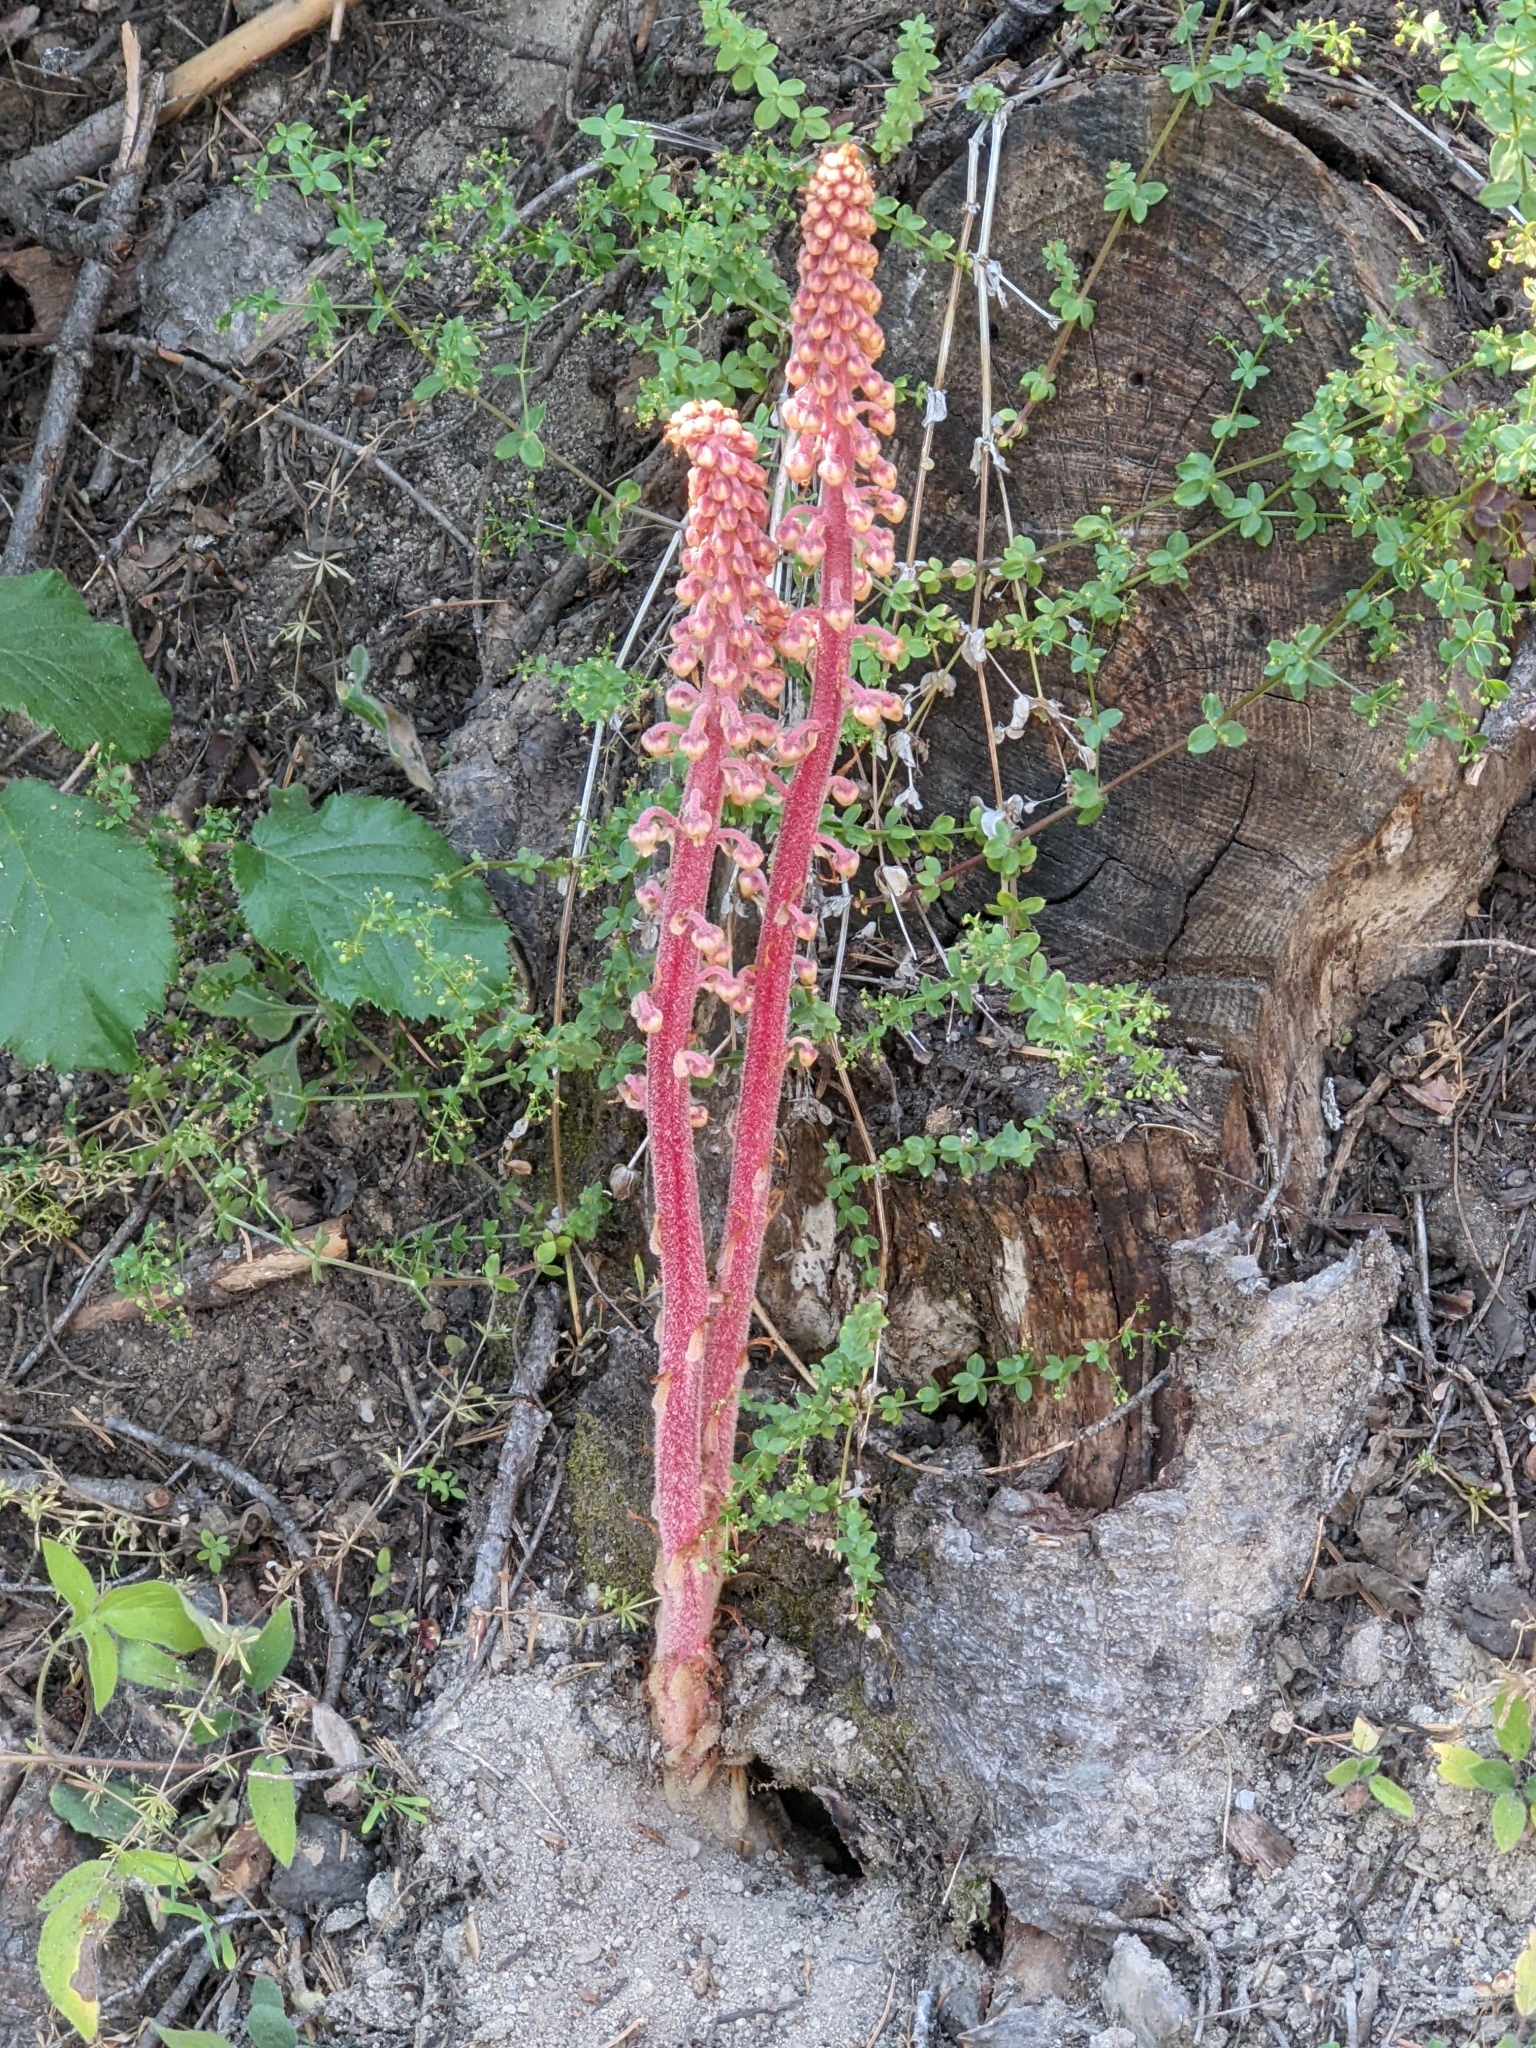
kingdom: Plantae
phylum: Tracheophyta
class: Magnoliopsida
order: Ericales
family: Ericaceae
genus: Pterospora
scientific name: Pterospora andromedea
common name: Giant bird's-nest
